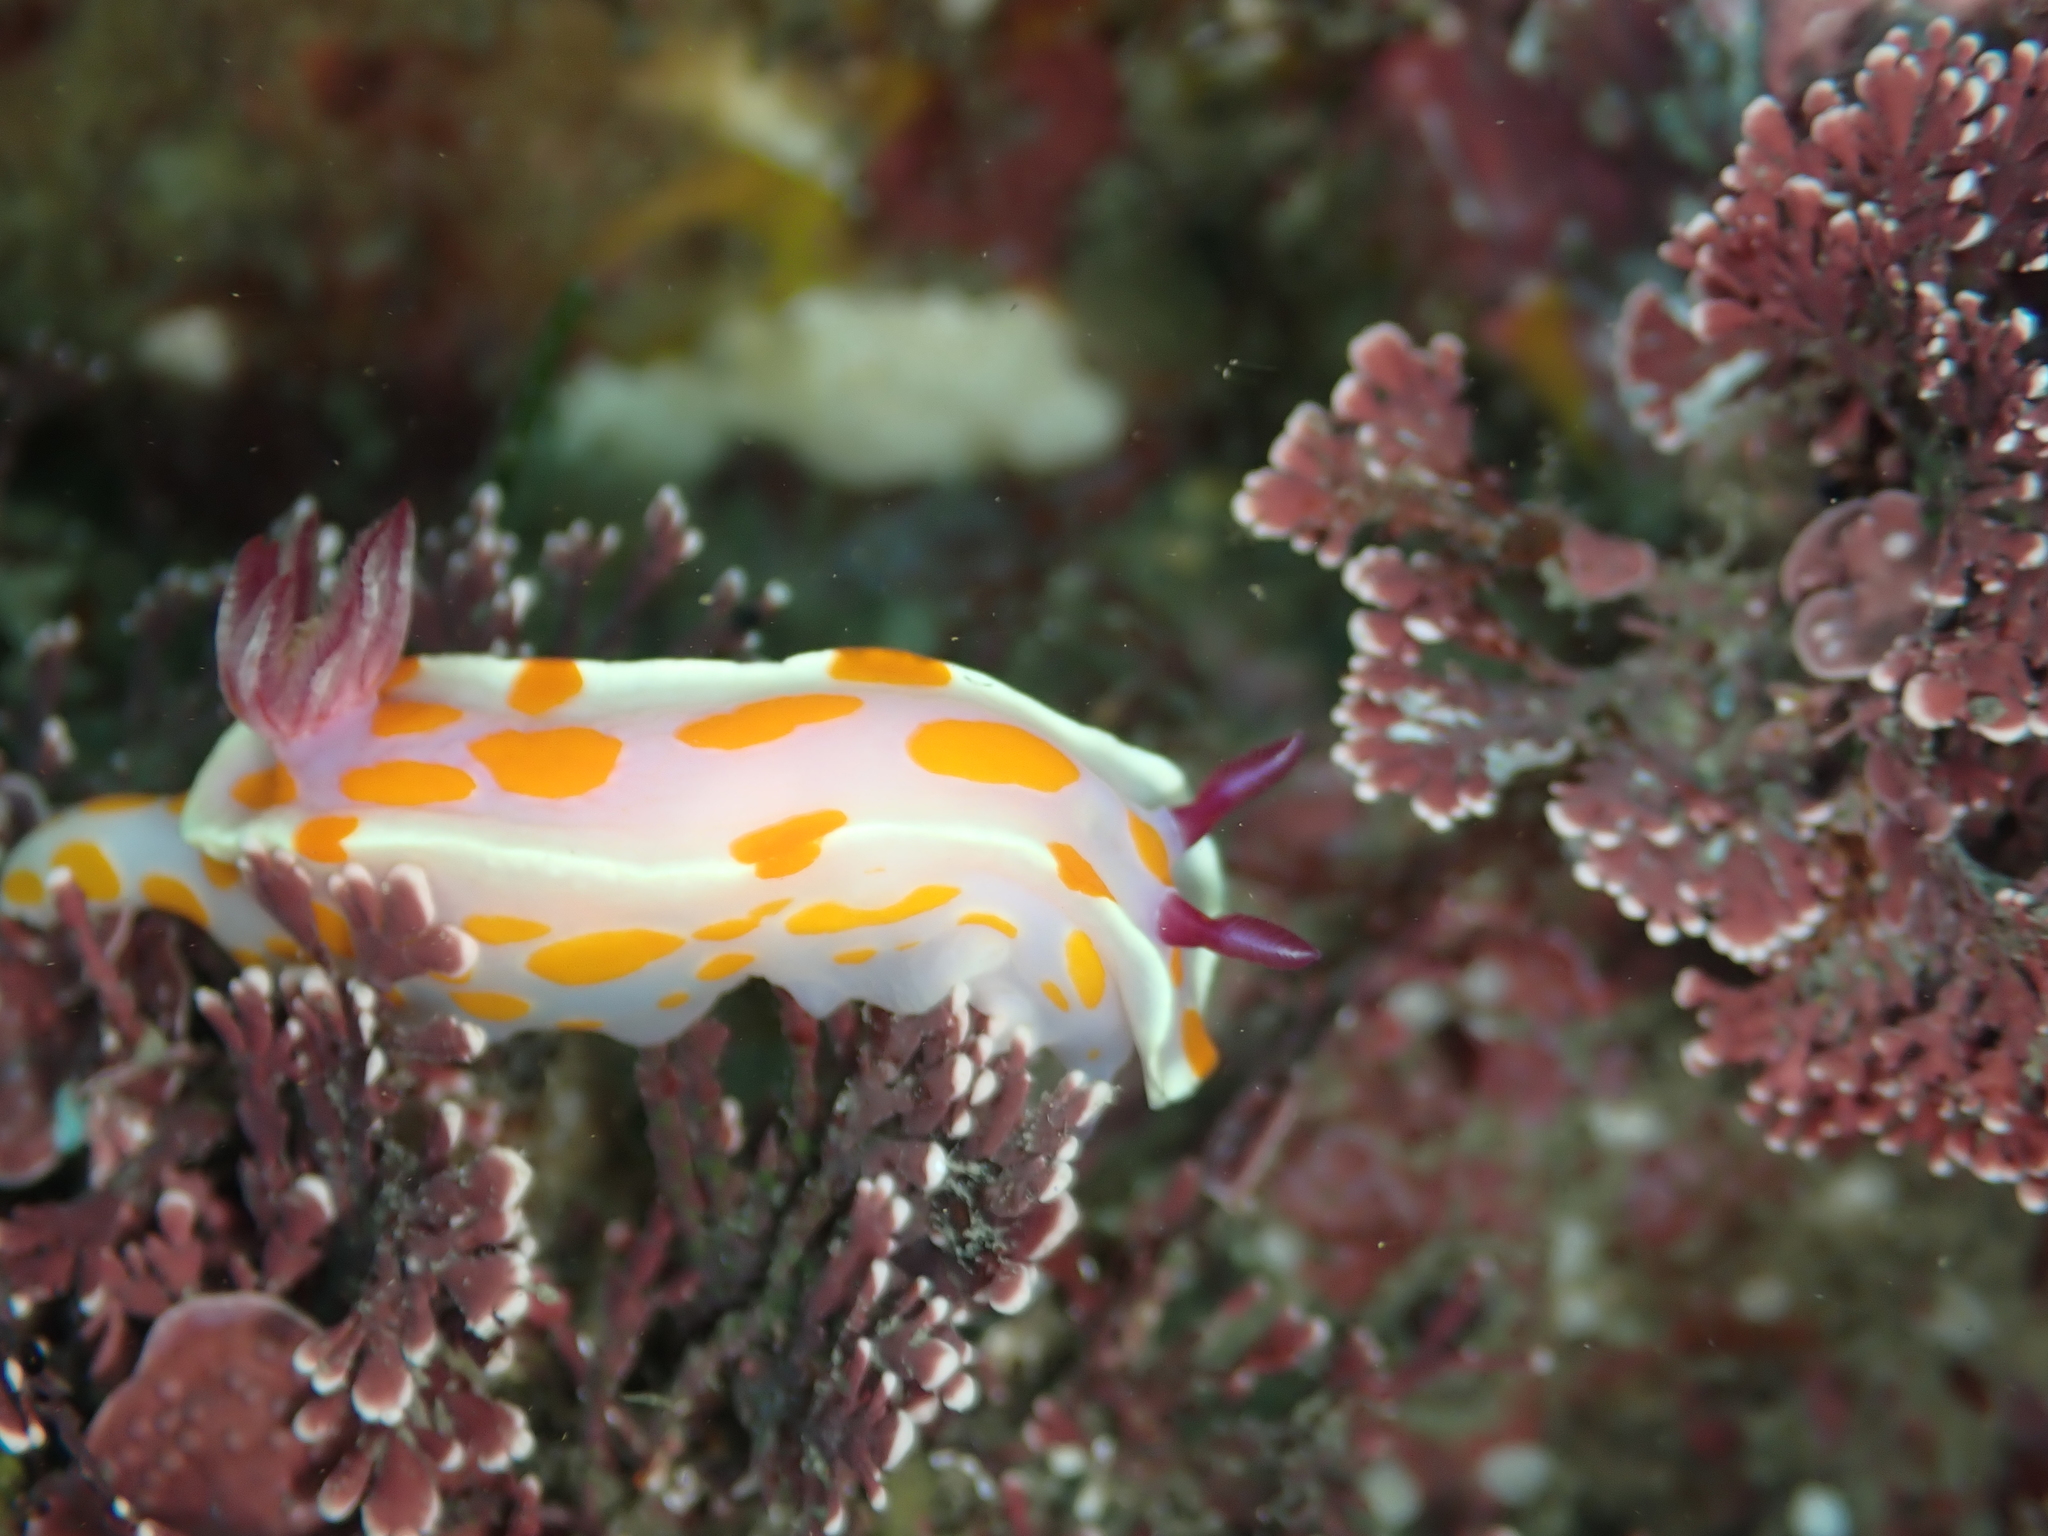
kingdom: Animalia
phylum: Mollusca
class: Gastropoda
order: Nudibranchia
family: Chromodorididae
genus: Ceratosoma
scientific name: Ceratosoma amoenum
